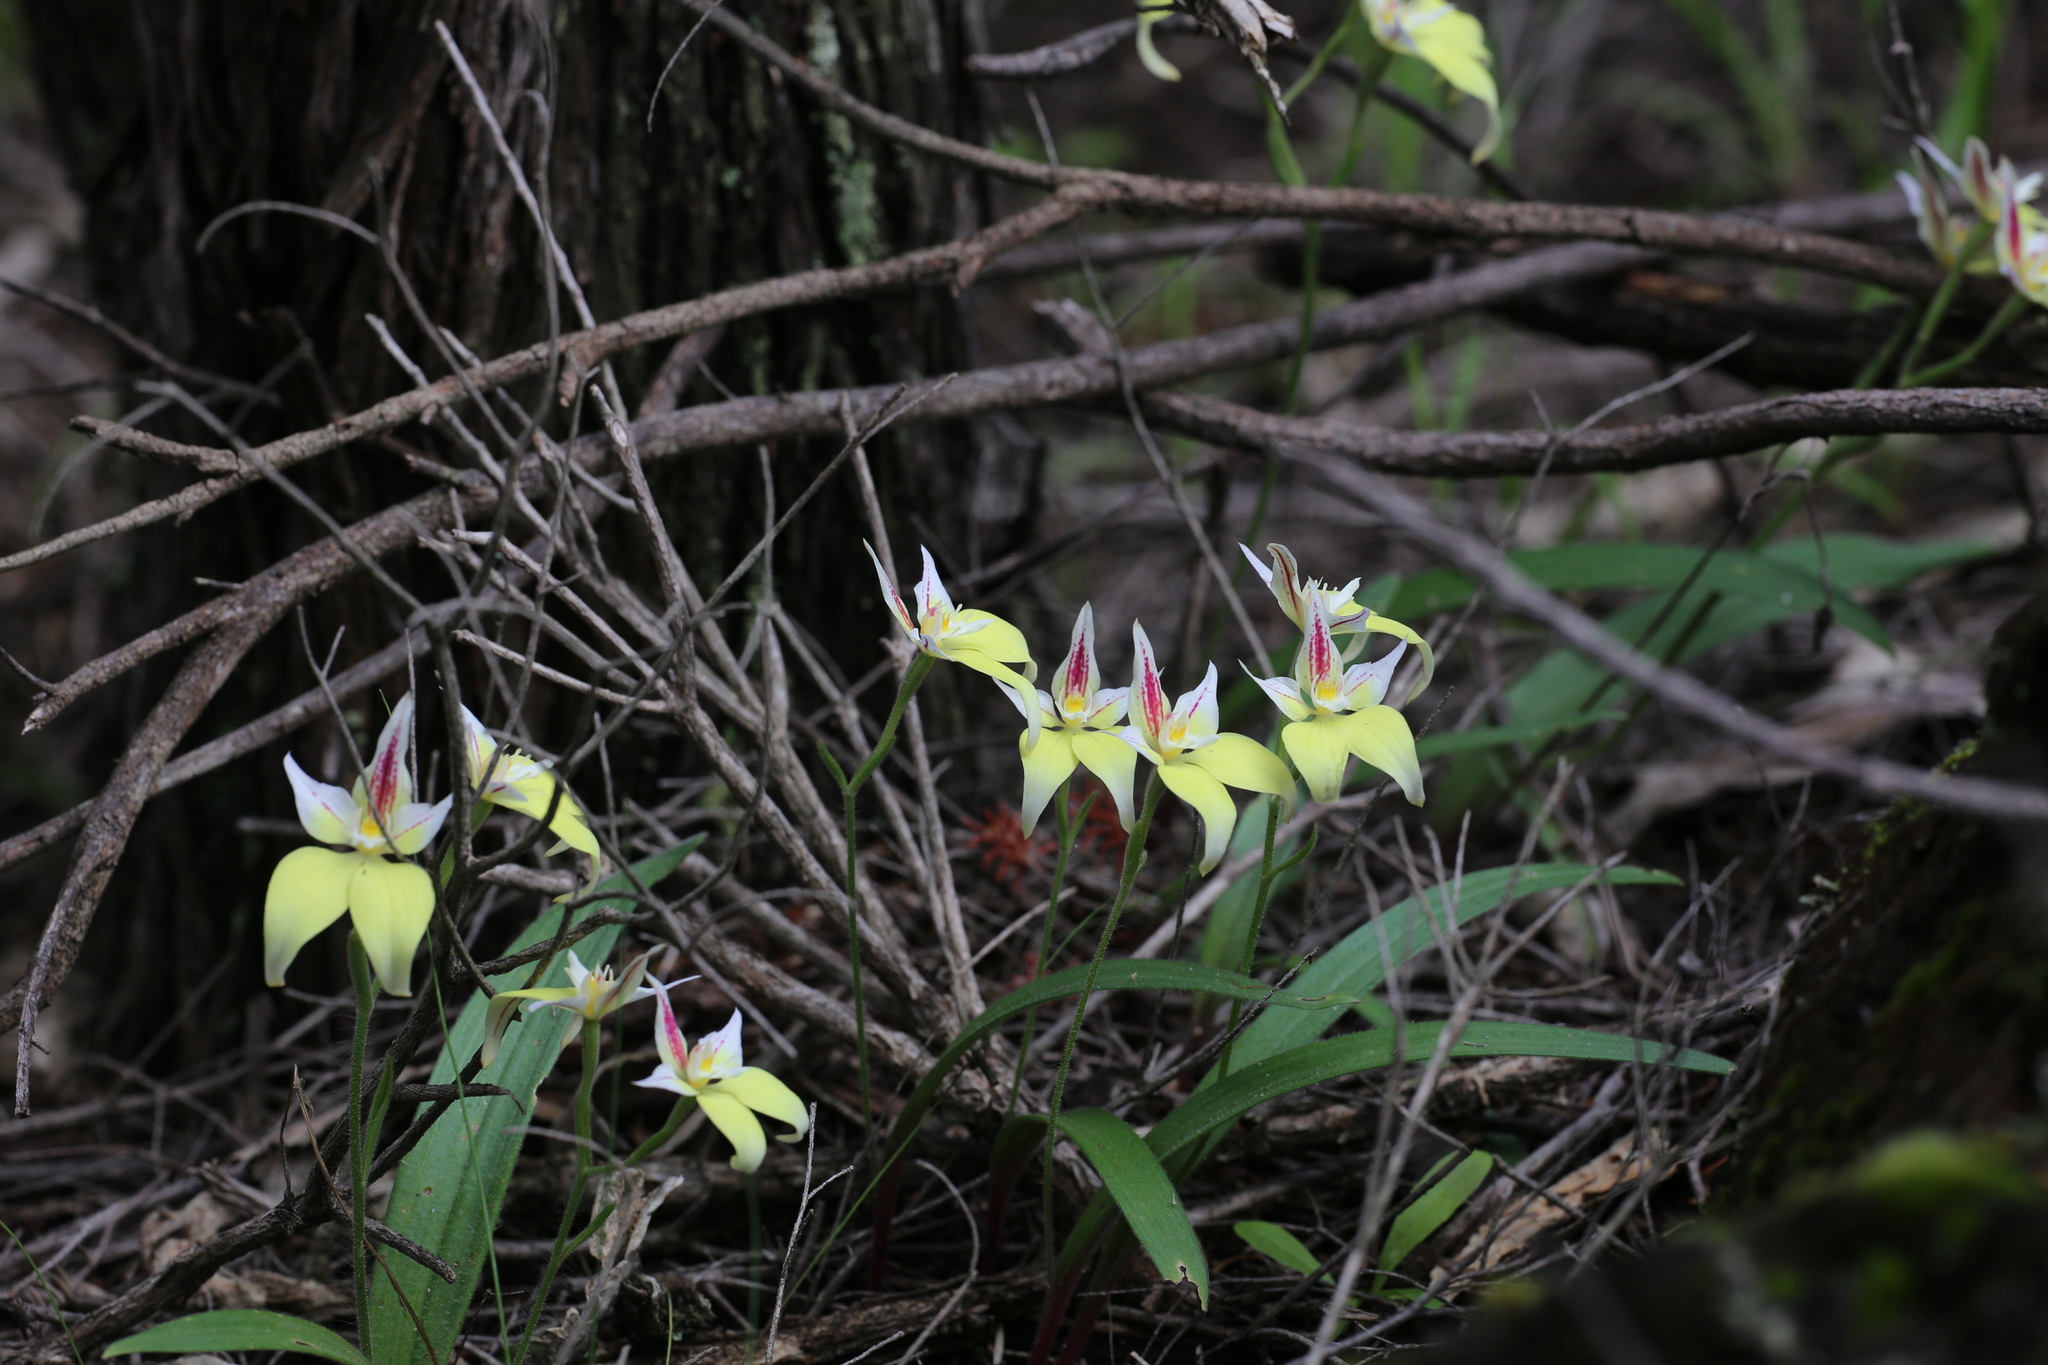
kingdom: Plantae
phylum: Tracheophyta
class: Liliopsida
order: Asparagales
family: Orchidaceae
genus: Caladenia
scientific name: Caladenia flava
